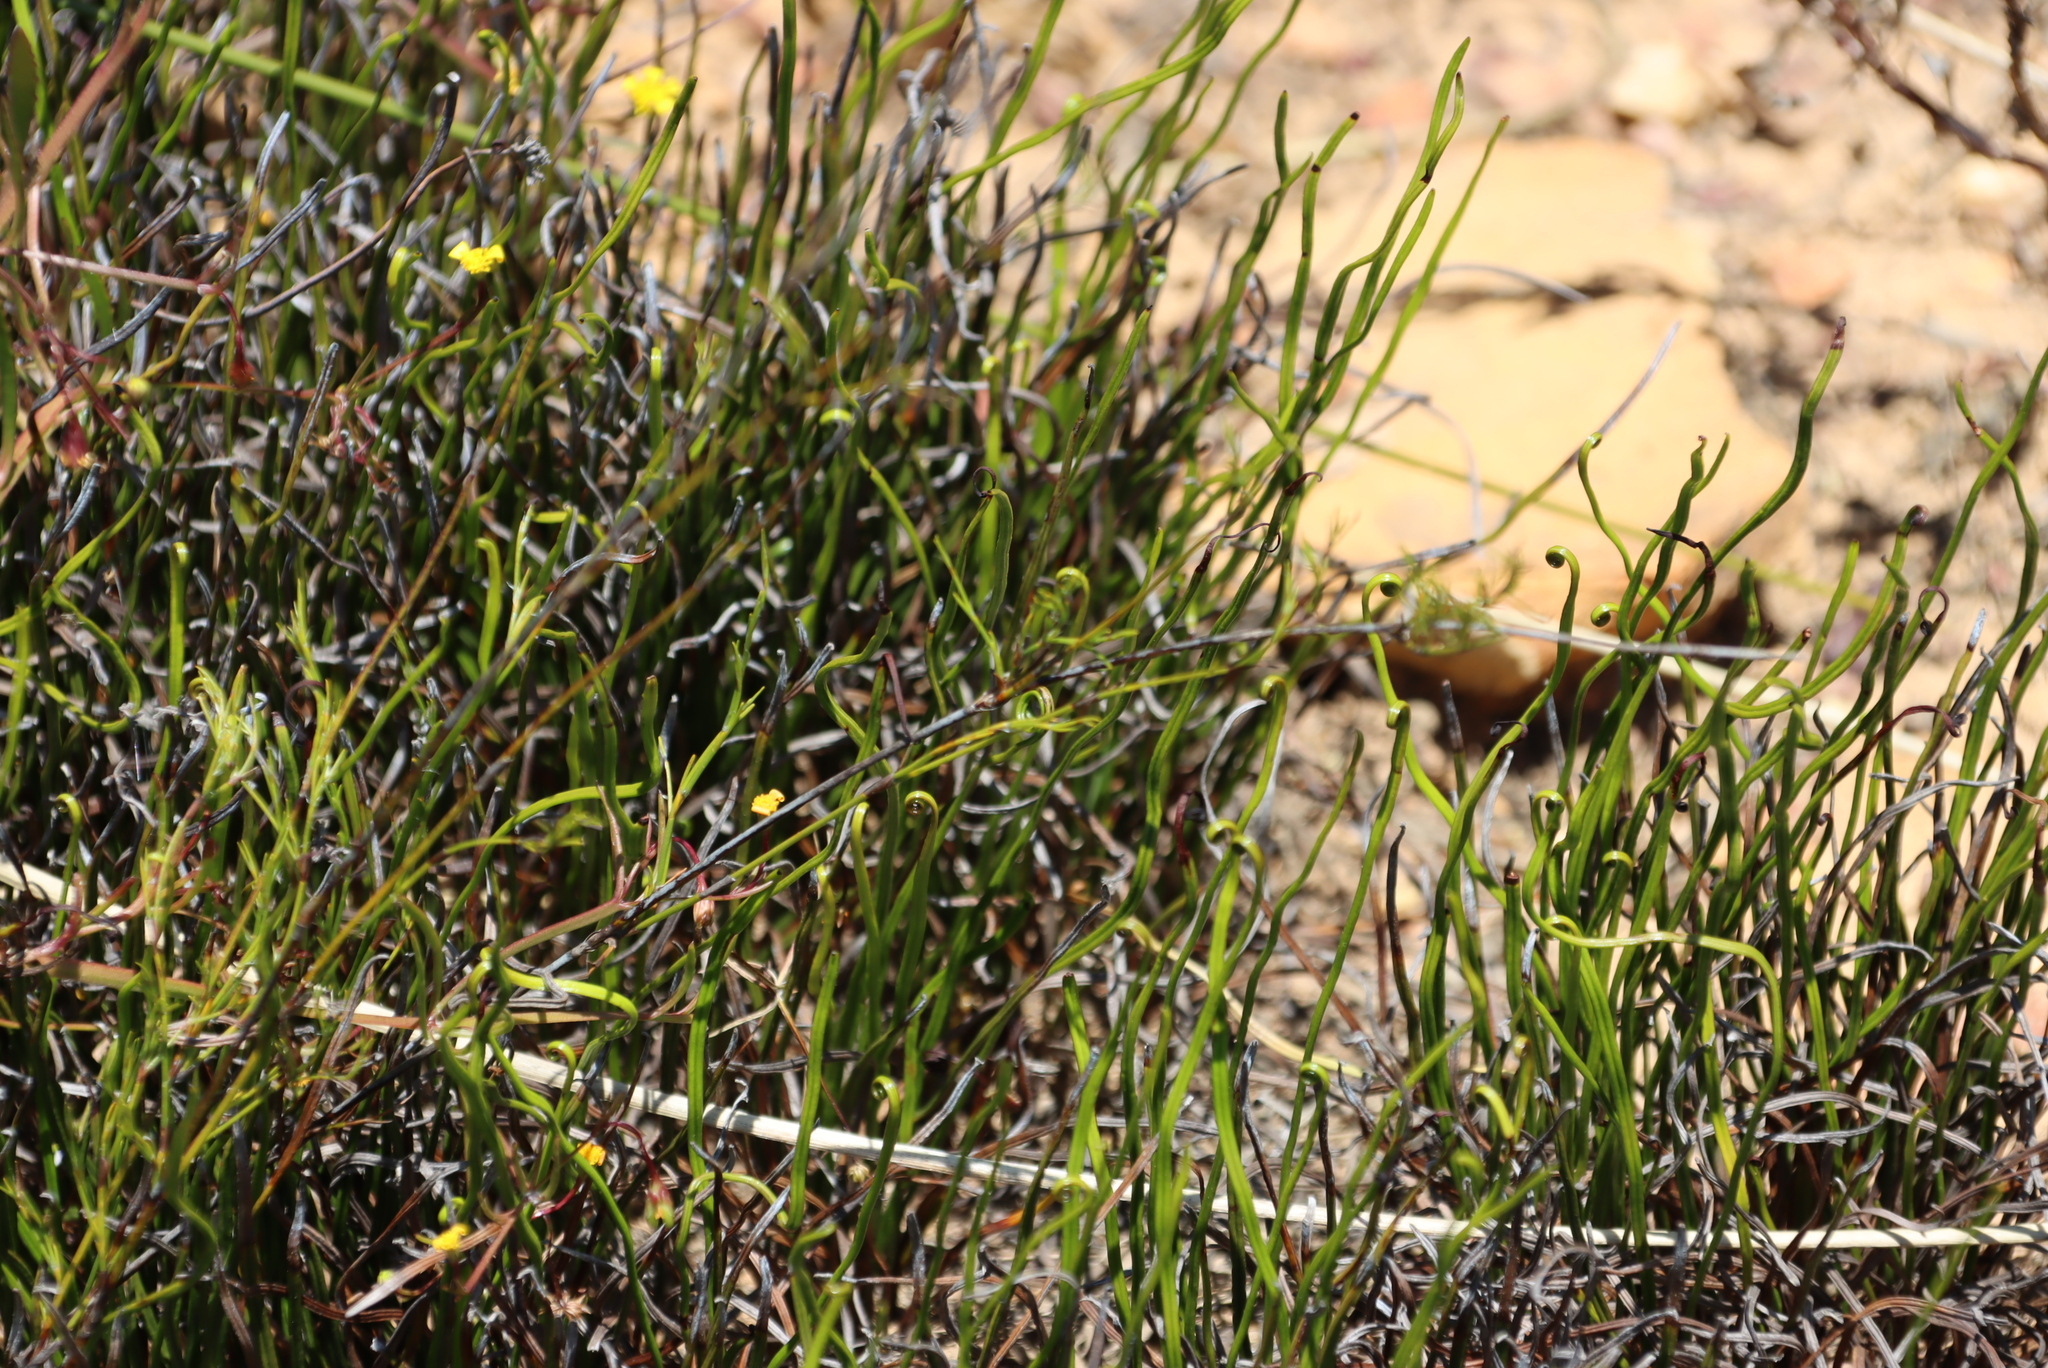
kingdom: Plantae
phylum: Tracheophyta
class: Polypodiopsida
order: Schizaeales
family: Schizaeaceae
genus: Schizaea
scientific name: Schizaea pectinata
